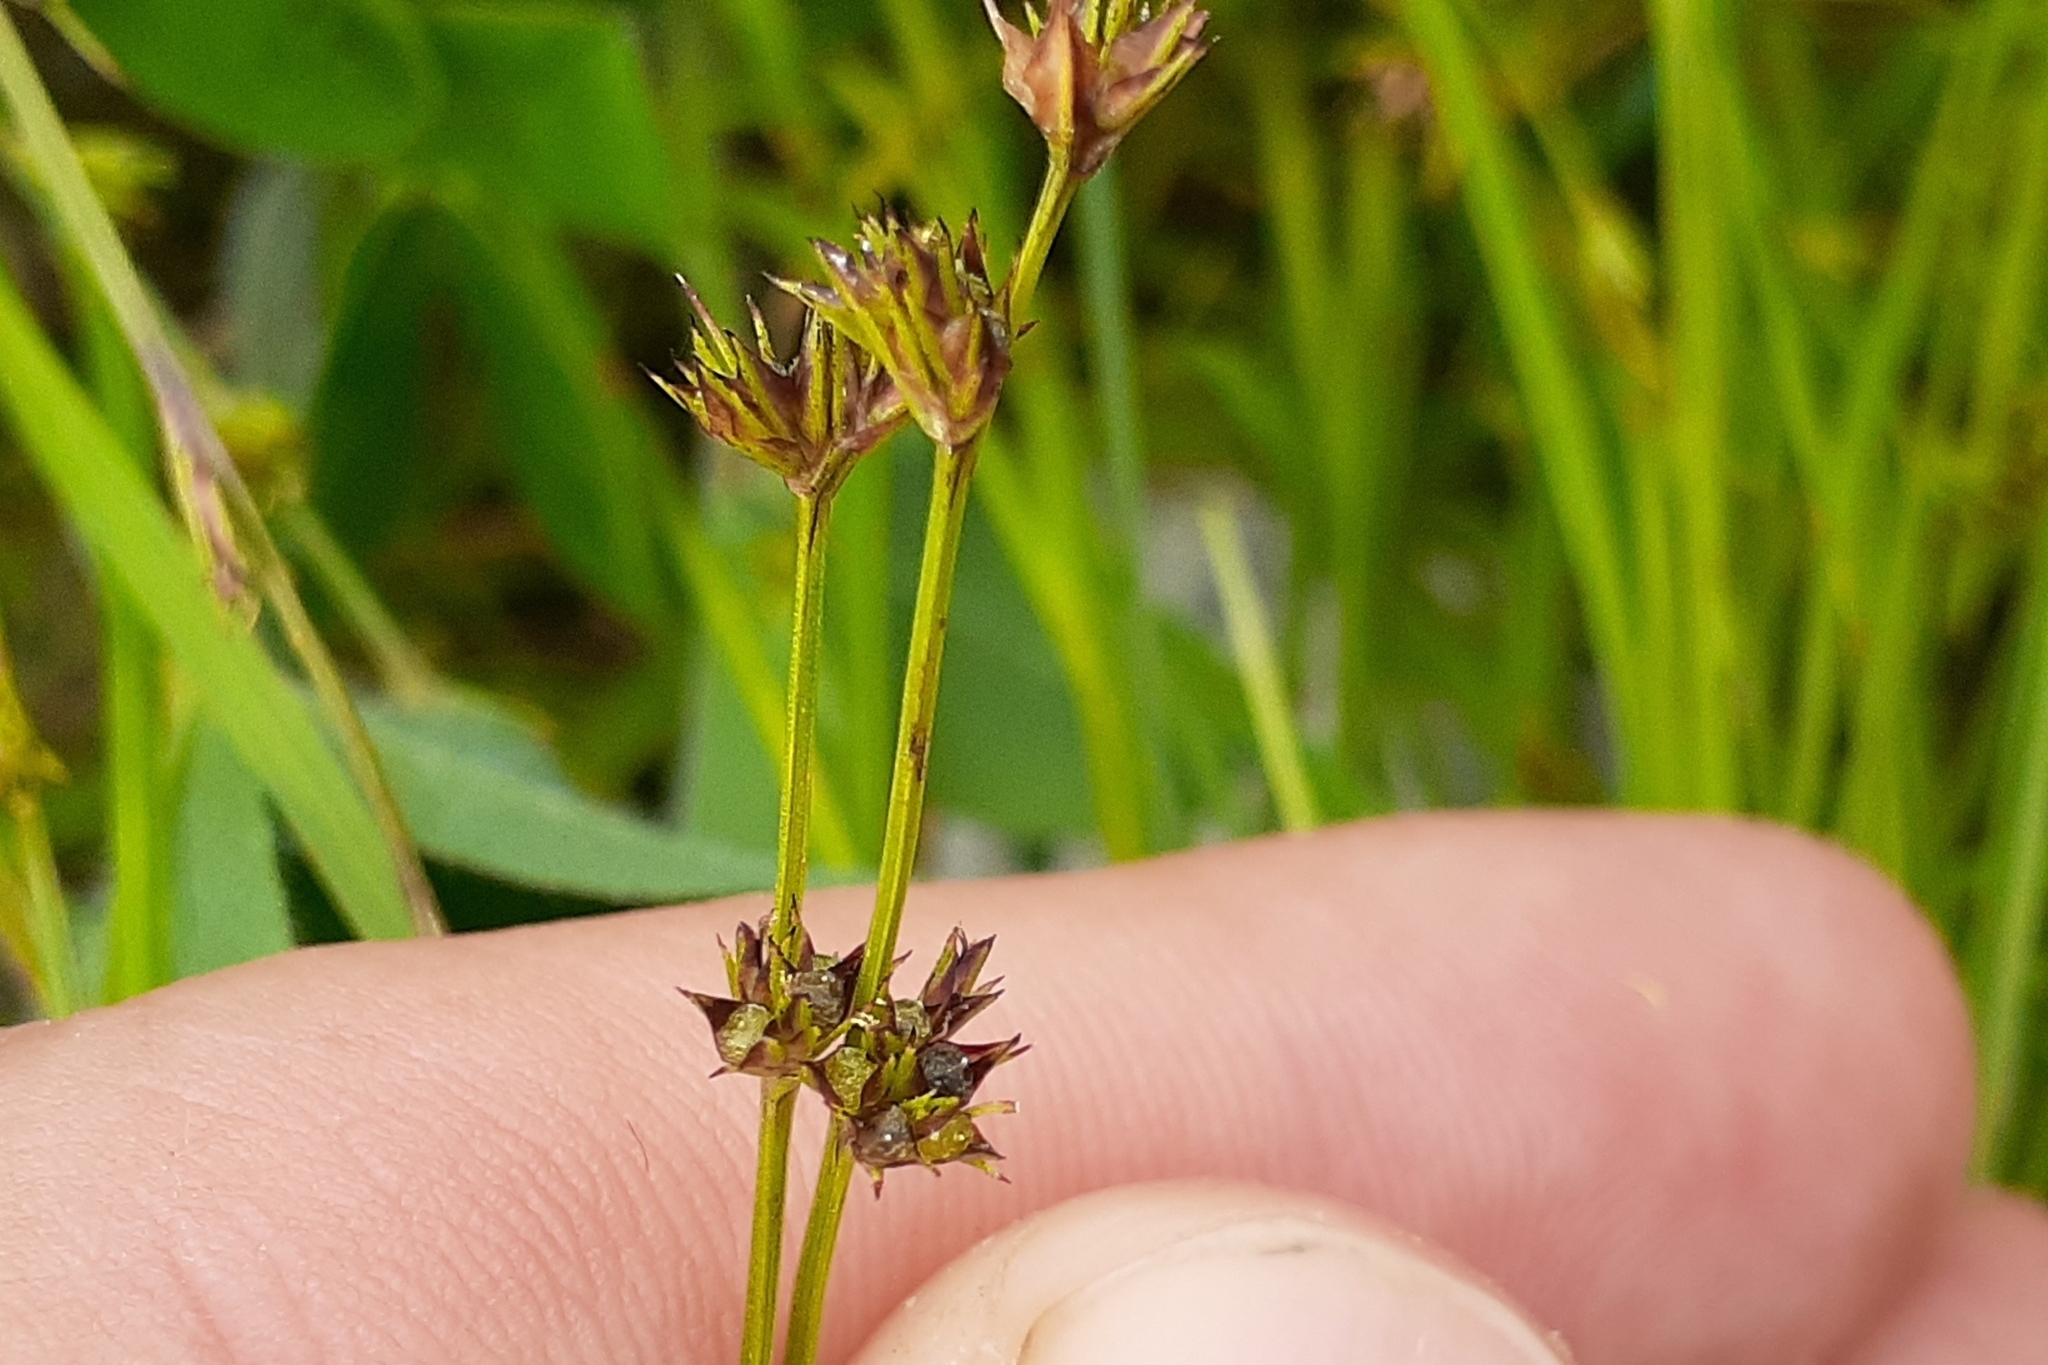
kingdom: Plantae
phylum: Tracheophyta
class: Liliopsida
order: Poales
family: Cyperaceae
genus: Scleria
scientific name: Scleria verticillata
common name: Low nutrush
